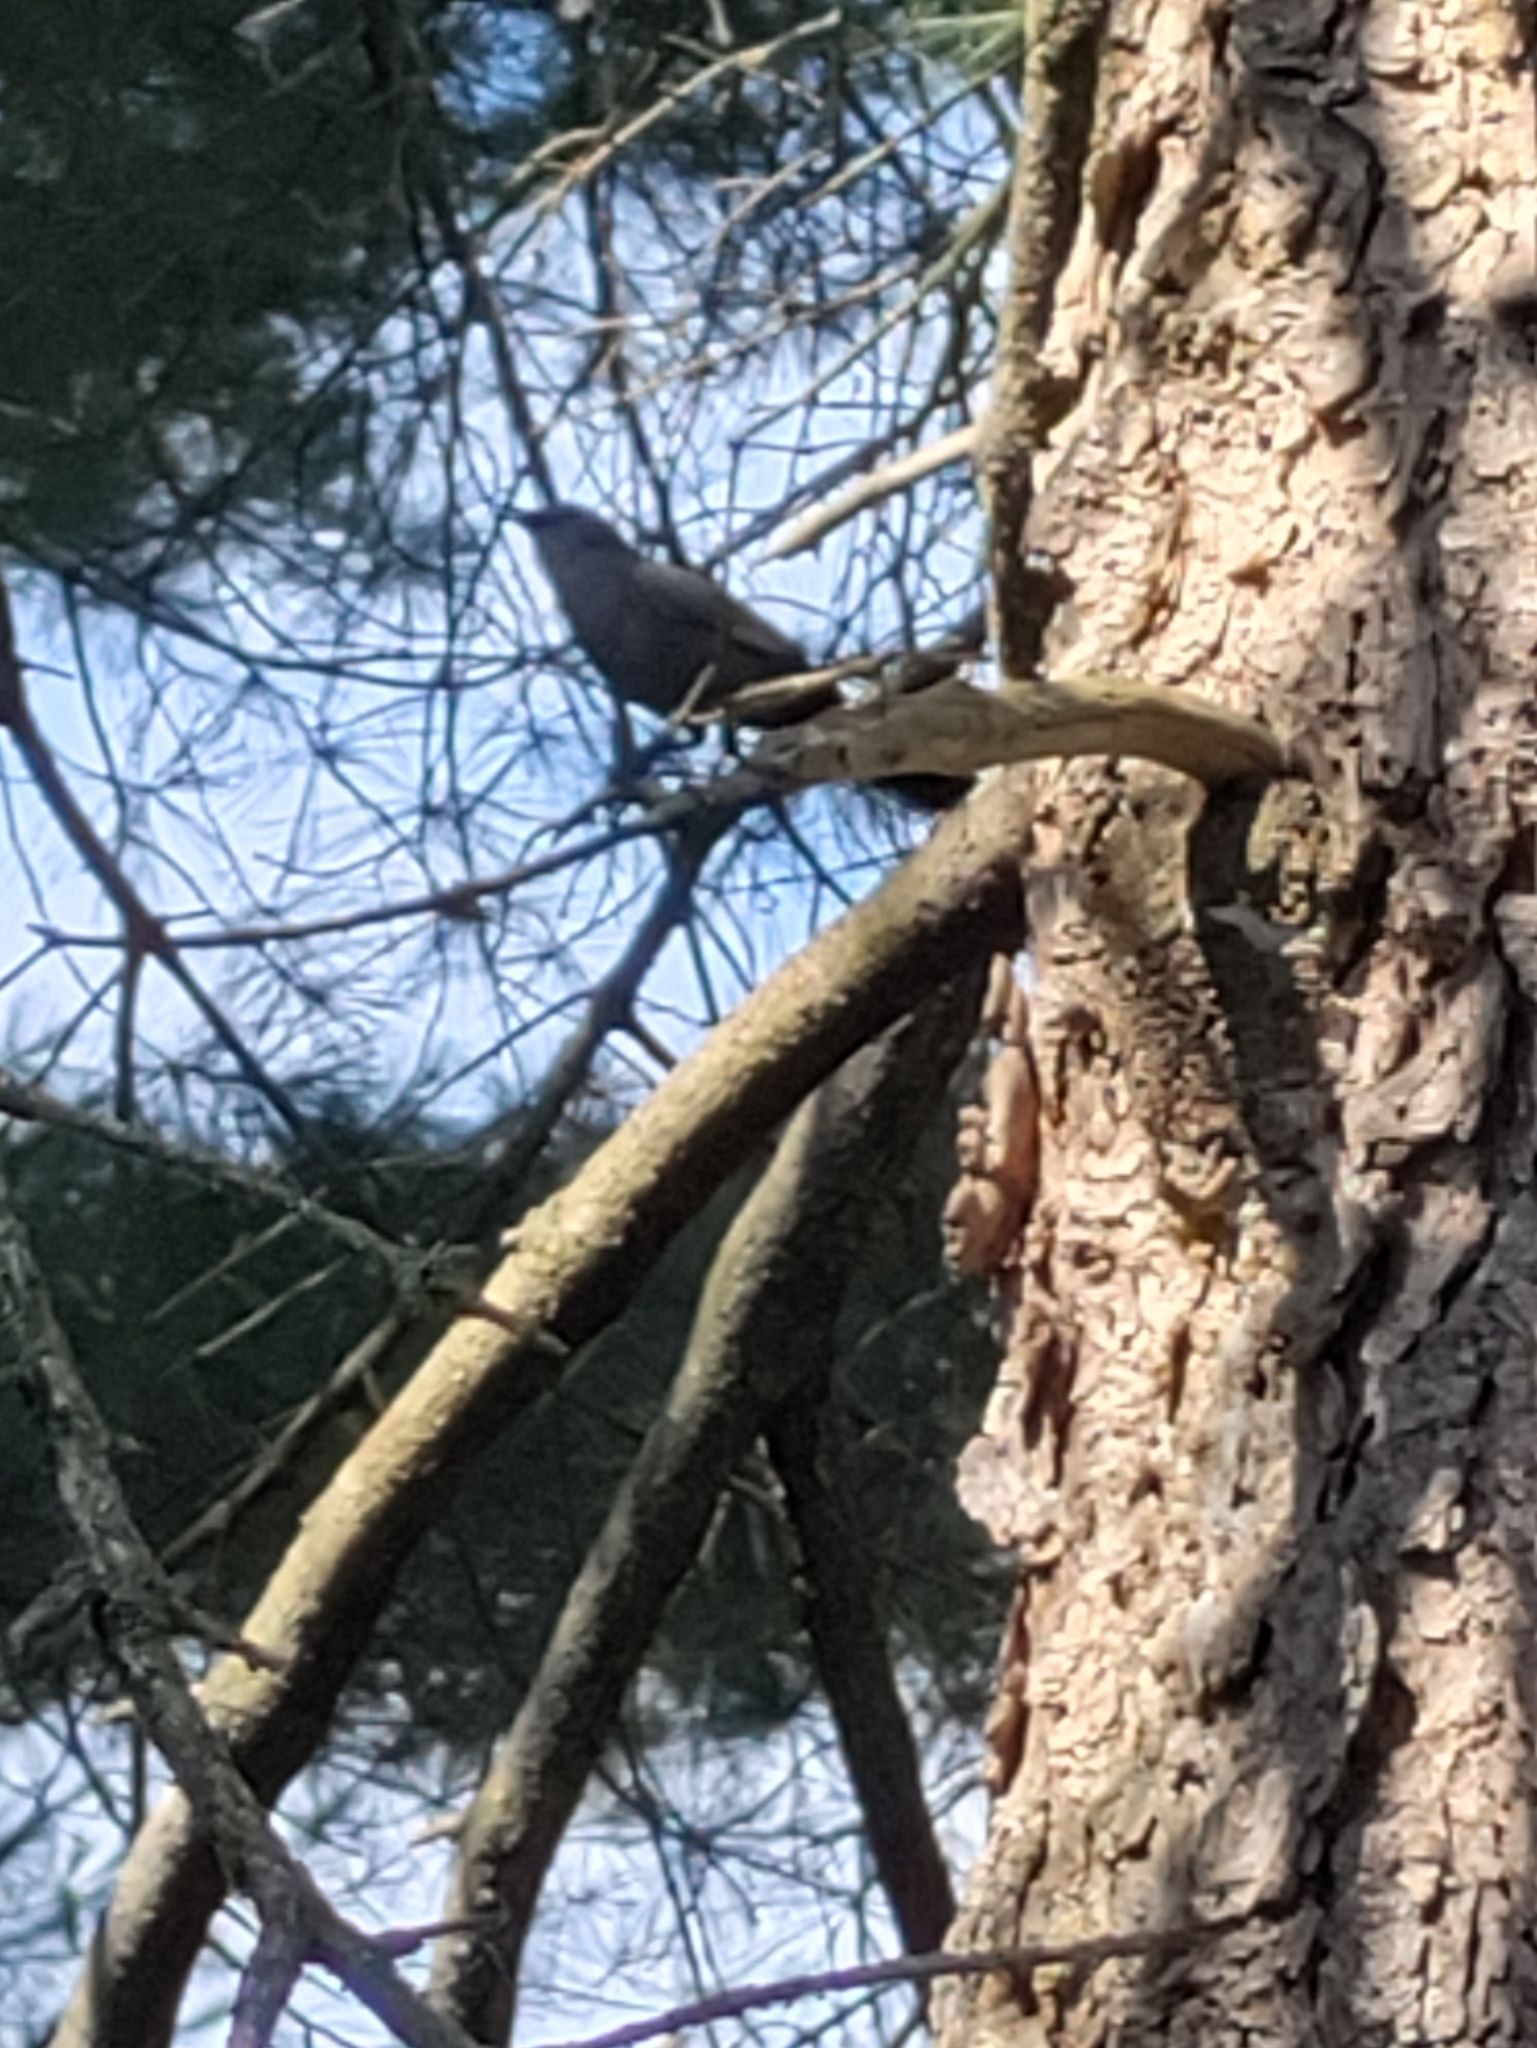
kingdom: Animalia
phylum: Chordata
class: Aves
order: Passeriformes
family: Mimidae
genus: Dumetella
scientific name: Dumetella carolinensis
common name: Gray catbird
